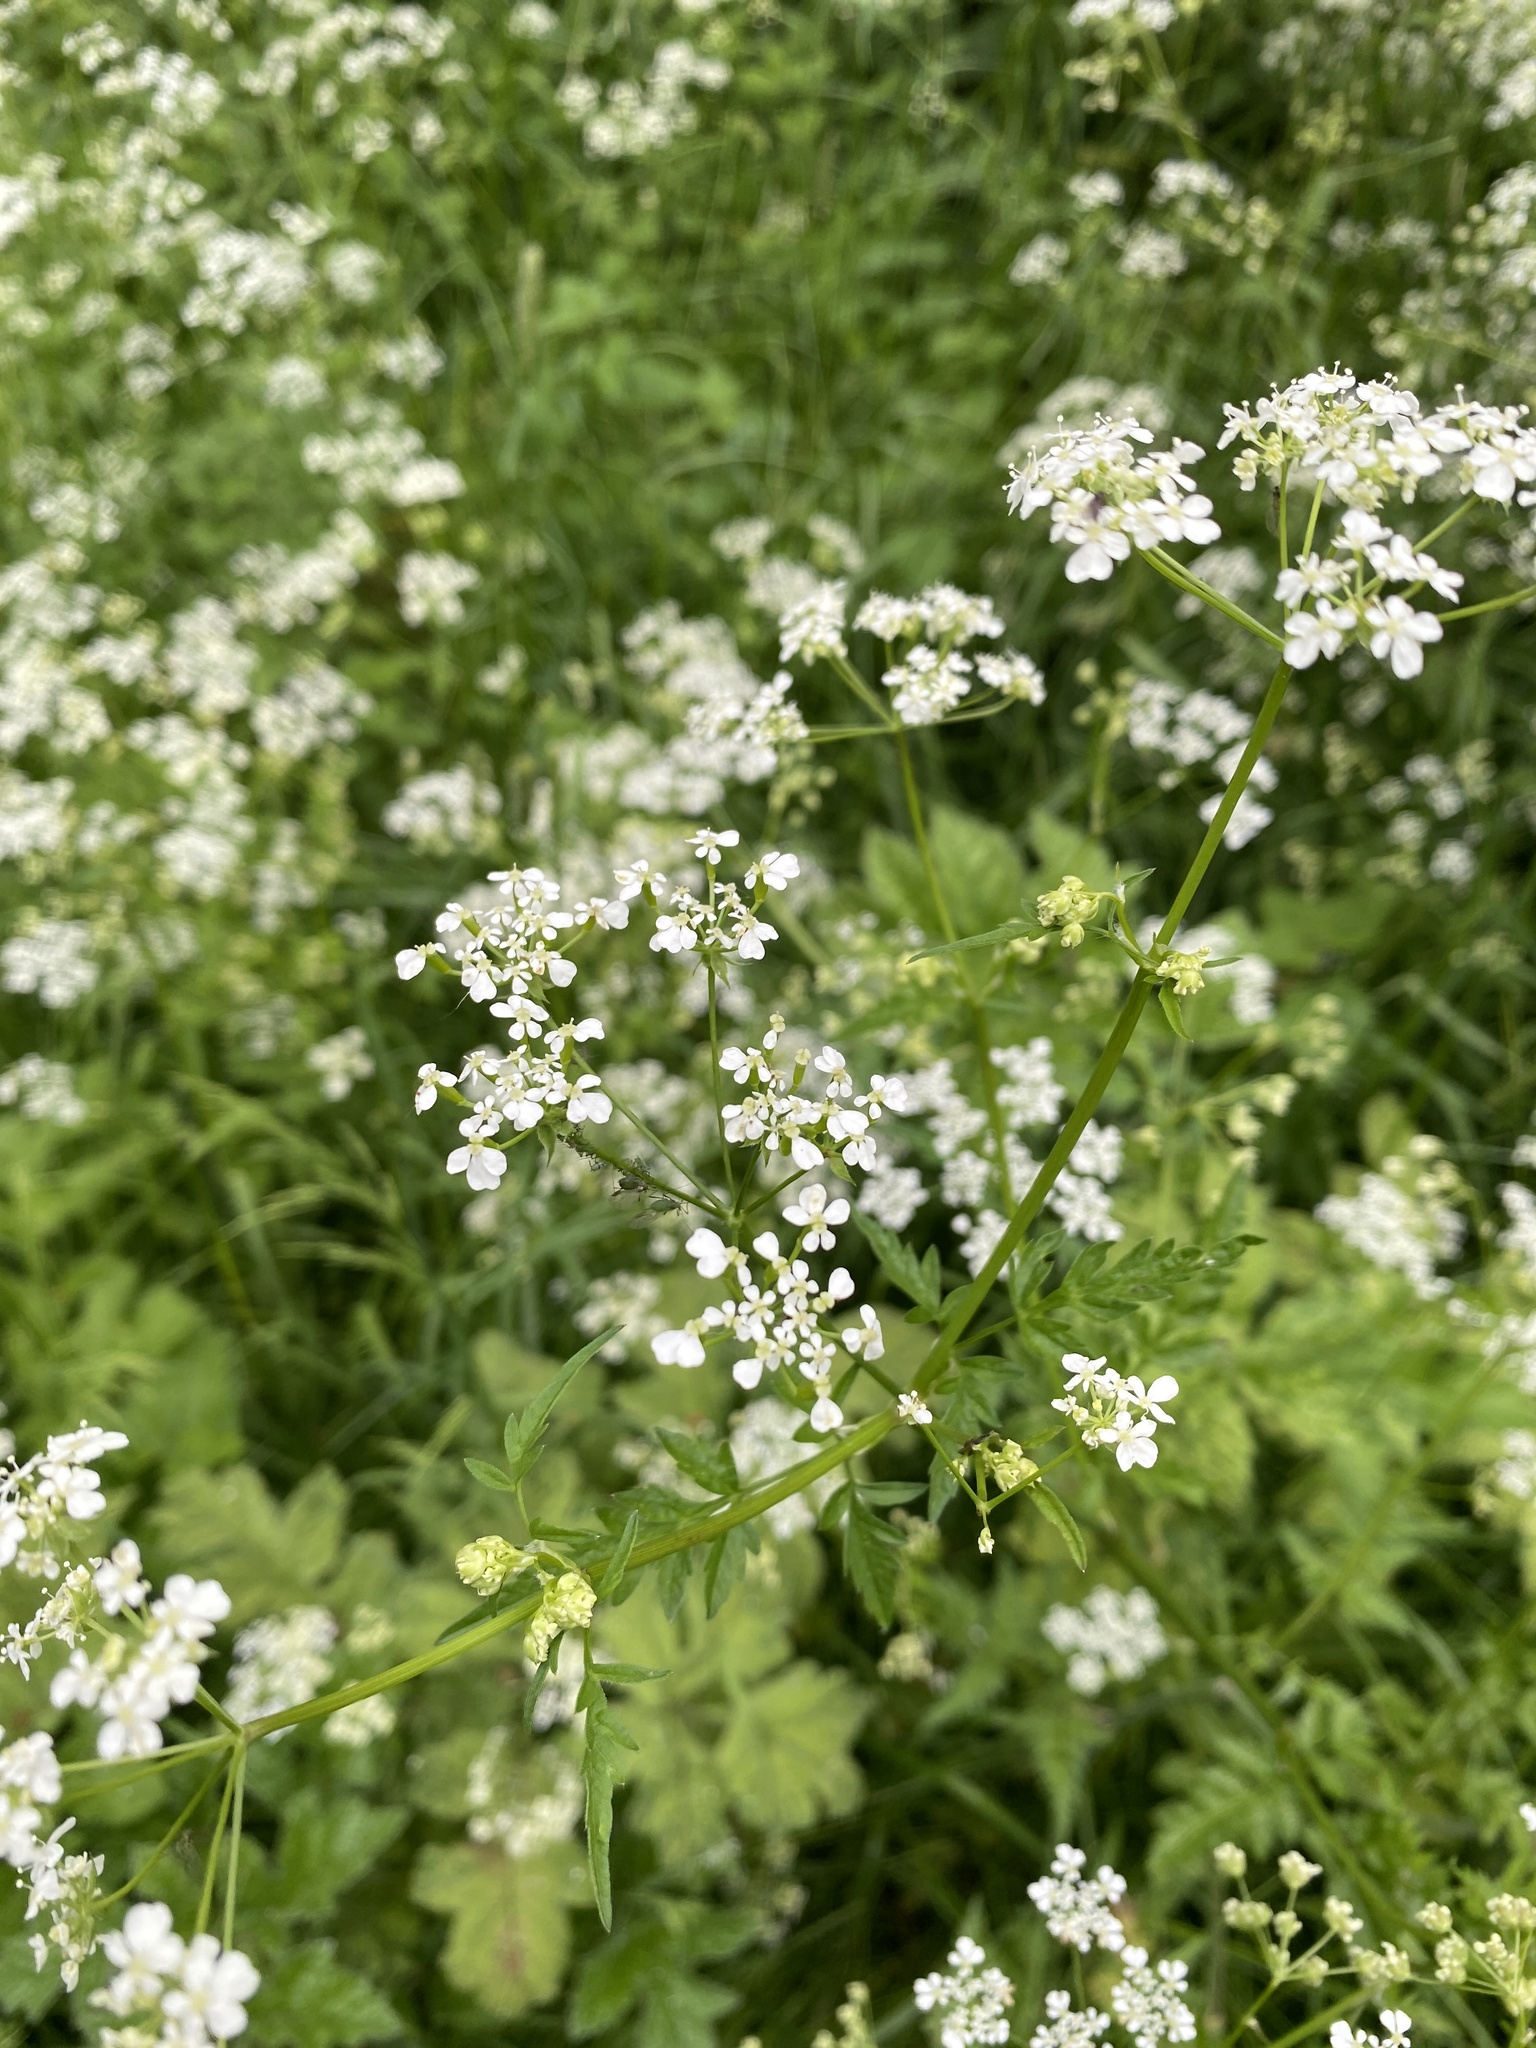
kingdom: Plantae
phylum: Tracheophyta
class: Magnoliopsida
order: Apiales
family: Apiaceae
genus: Anthriscus
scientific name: Anthriscus sylvestris
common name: Cow parsley
